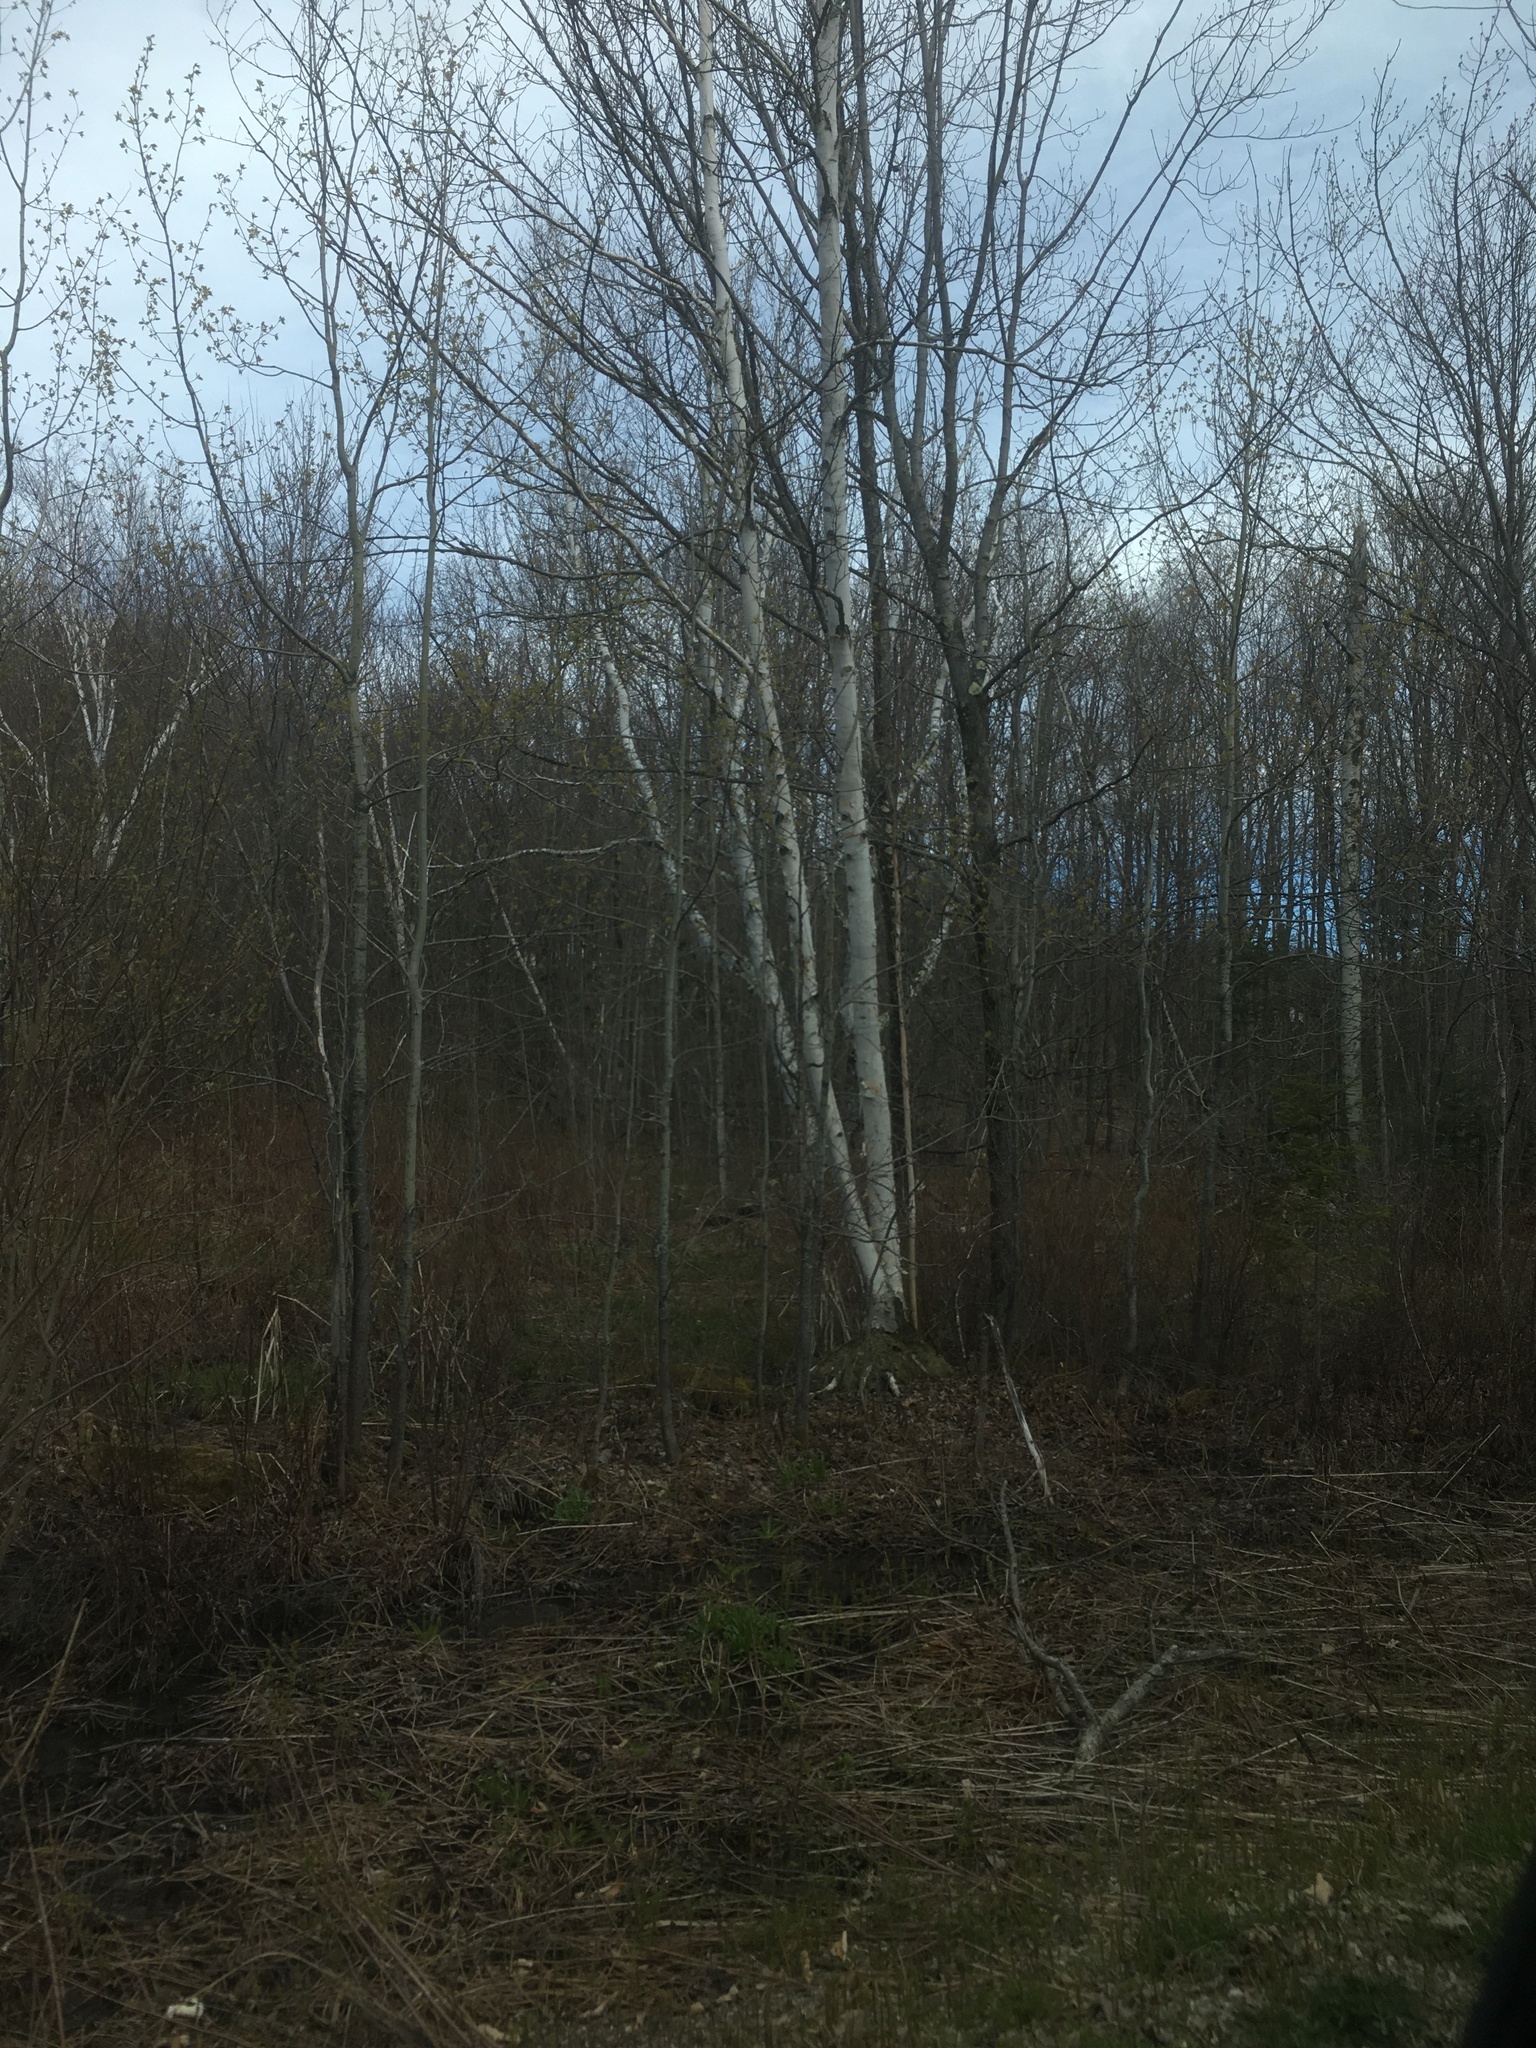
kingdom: Plantae
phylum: Tracheophyta
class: Magnoliopsida
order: Fagales
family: Betulaceae
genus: Betula
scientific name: Betula papyrifera
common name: Paper birch
